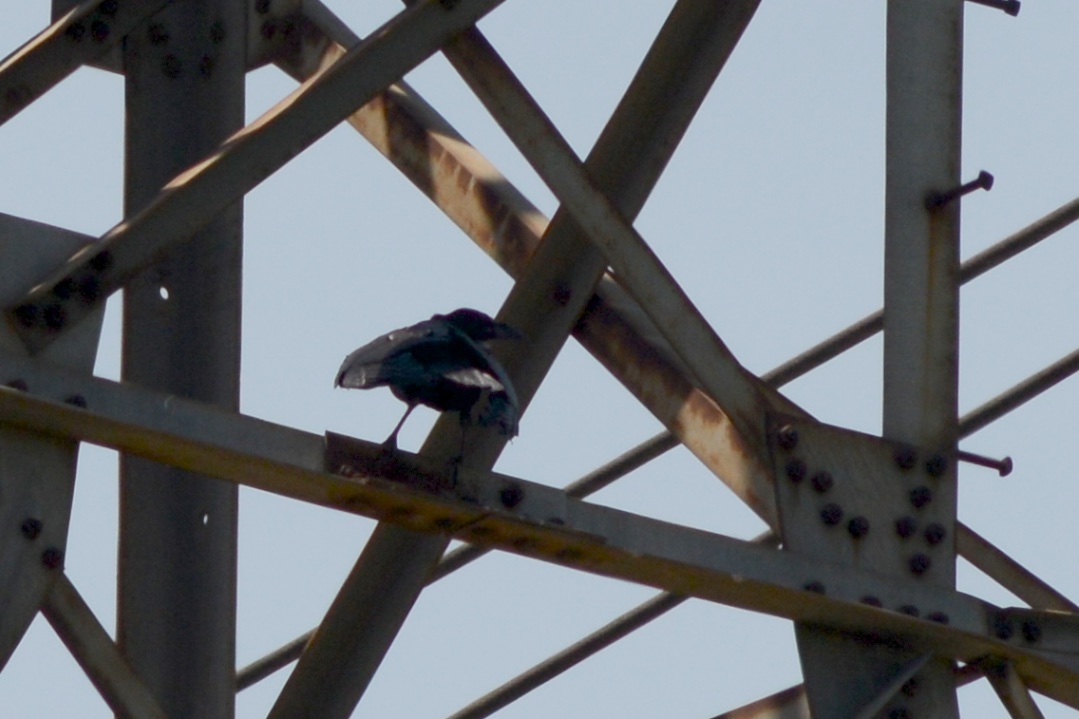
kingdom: Animalia
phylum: Chordata
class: Aves
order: Passeriformes
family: Corvidae
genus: Corvus
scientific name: Corvus brachyrhynchos
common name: American crow
